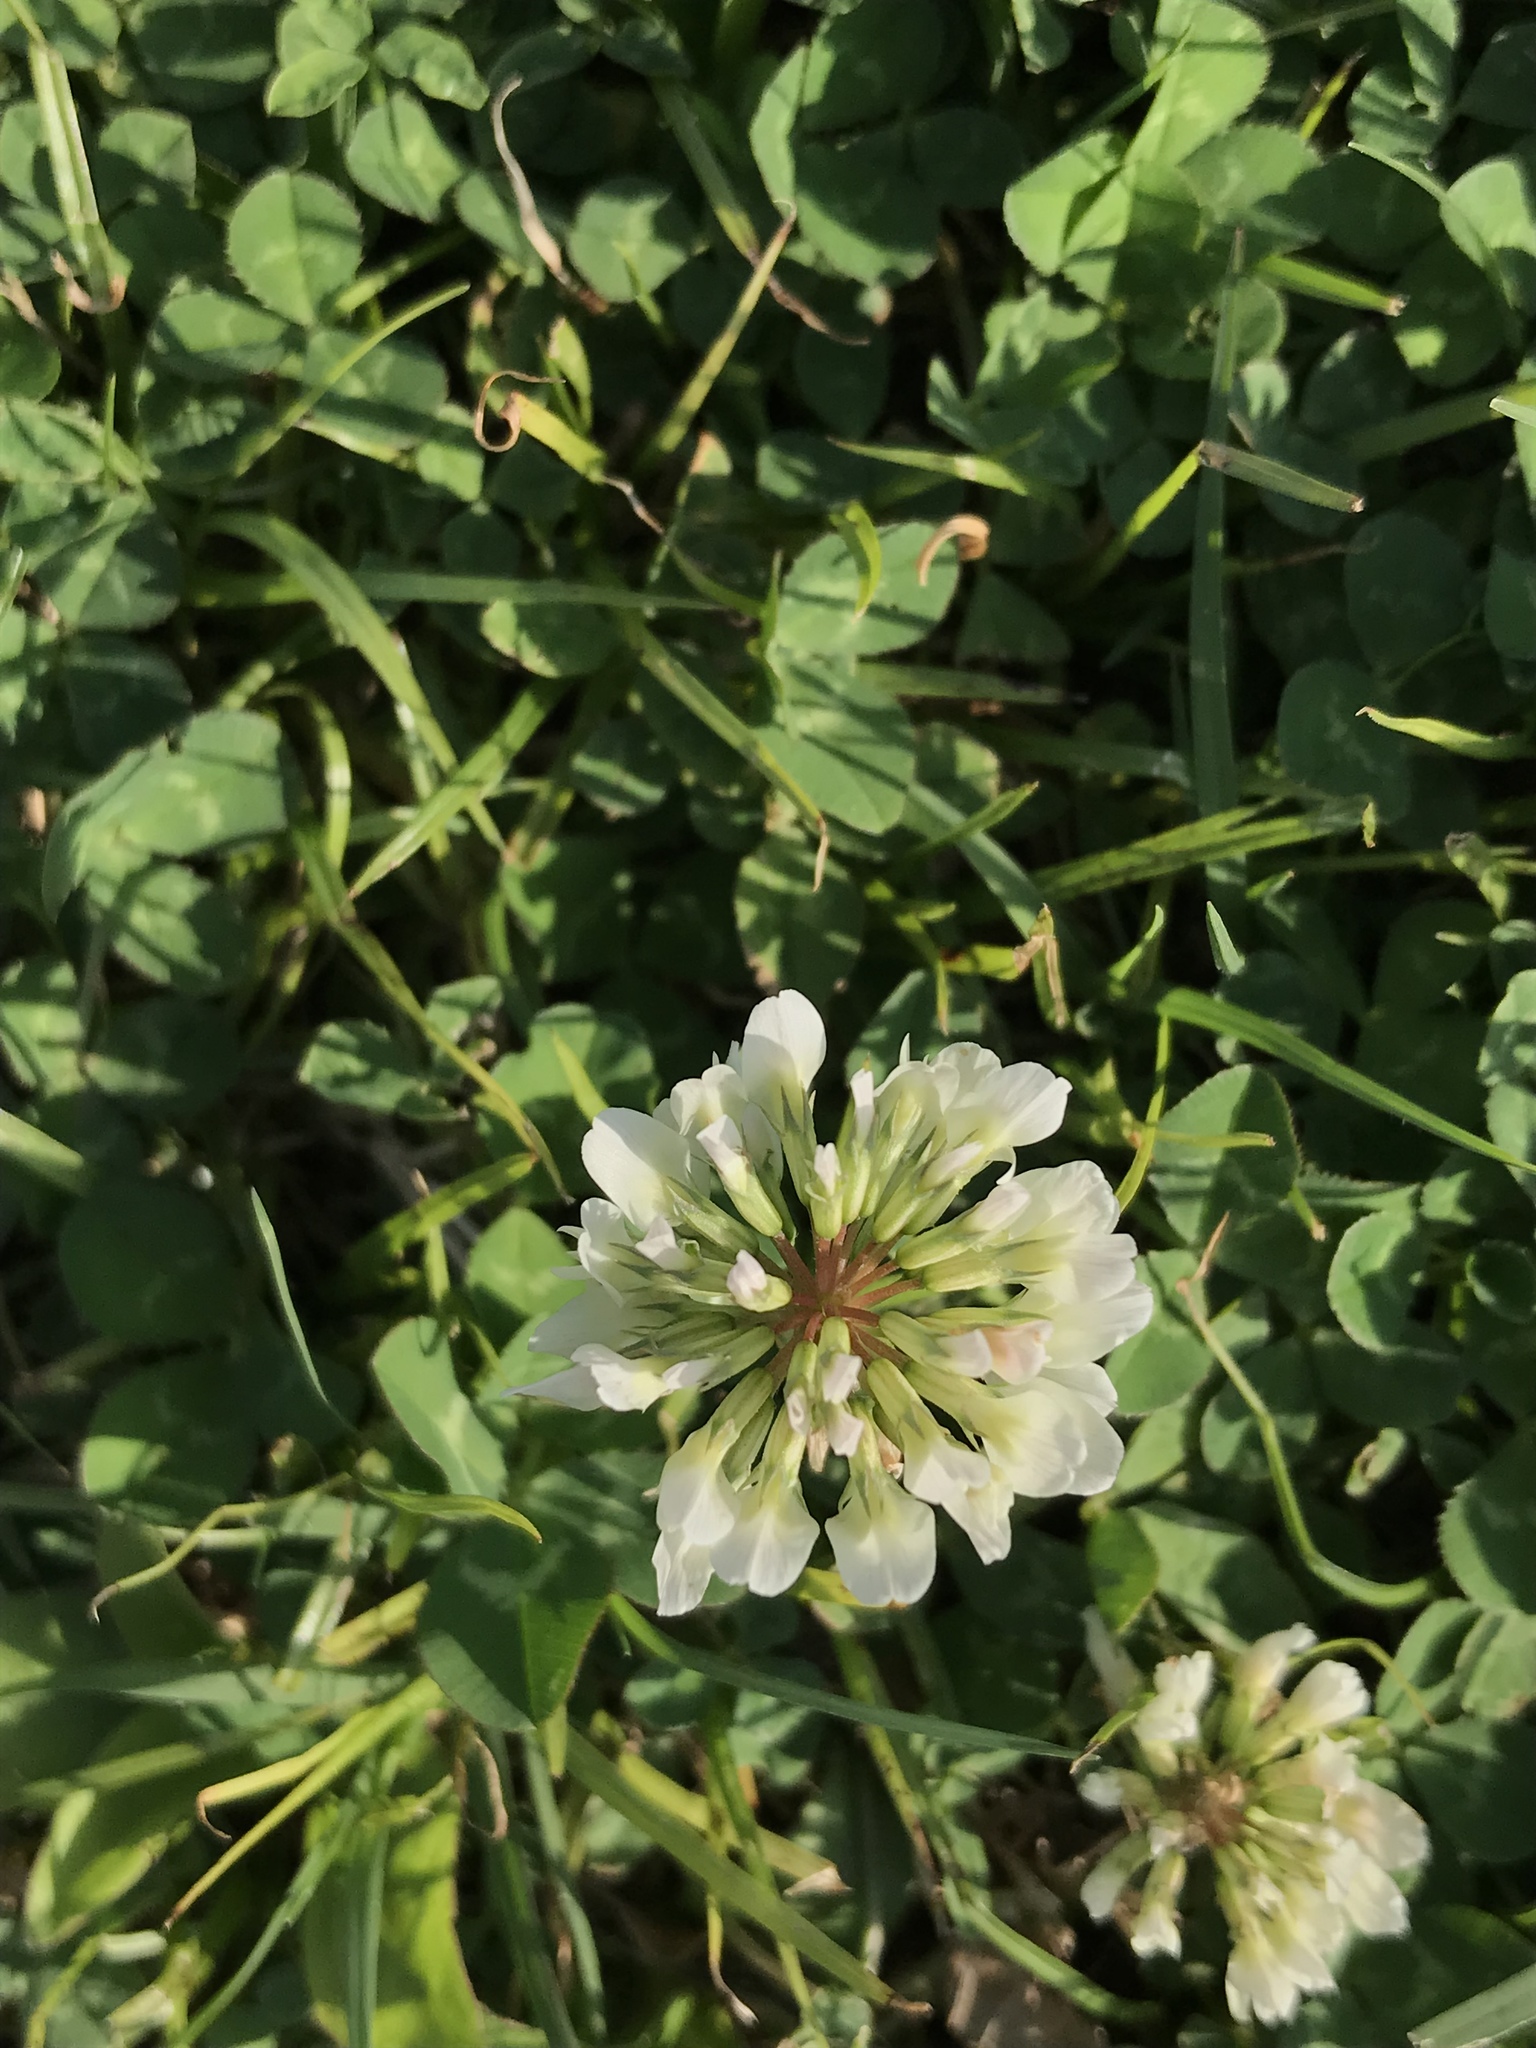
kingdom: Plantae
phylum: Tracheophyta
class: Magnoliopsida
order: Fabales
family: Fabaceae
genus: Trifolium
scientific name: Trifolium repens
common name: White clover
